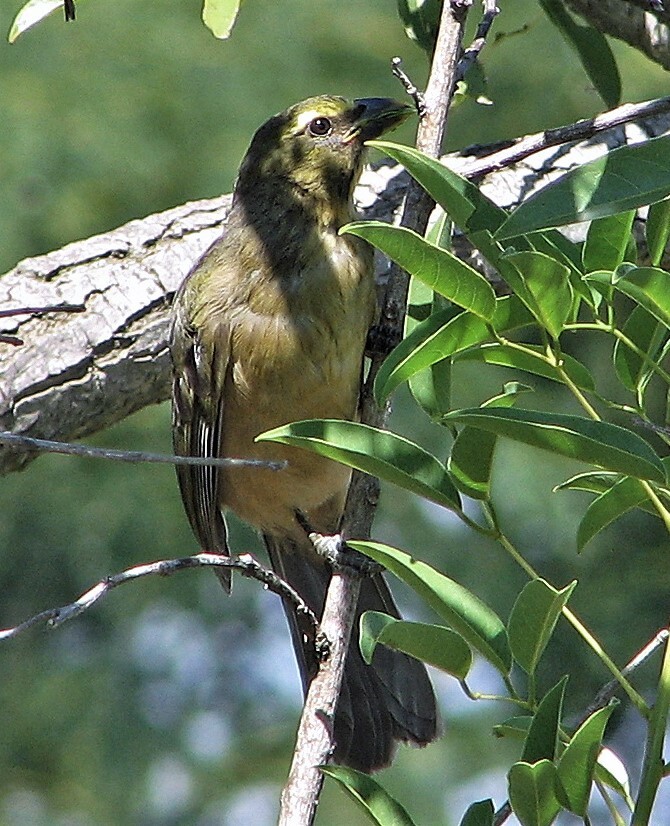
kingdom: Animalia
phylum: Chordata
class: Aves
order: Passeriformes
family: Thraupidae
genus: Saltator
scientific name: Saltator coerulescens
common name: Grayish saltator
